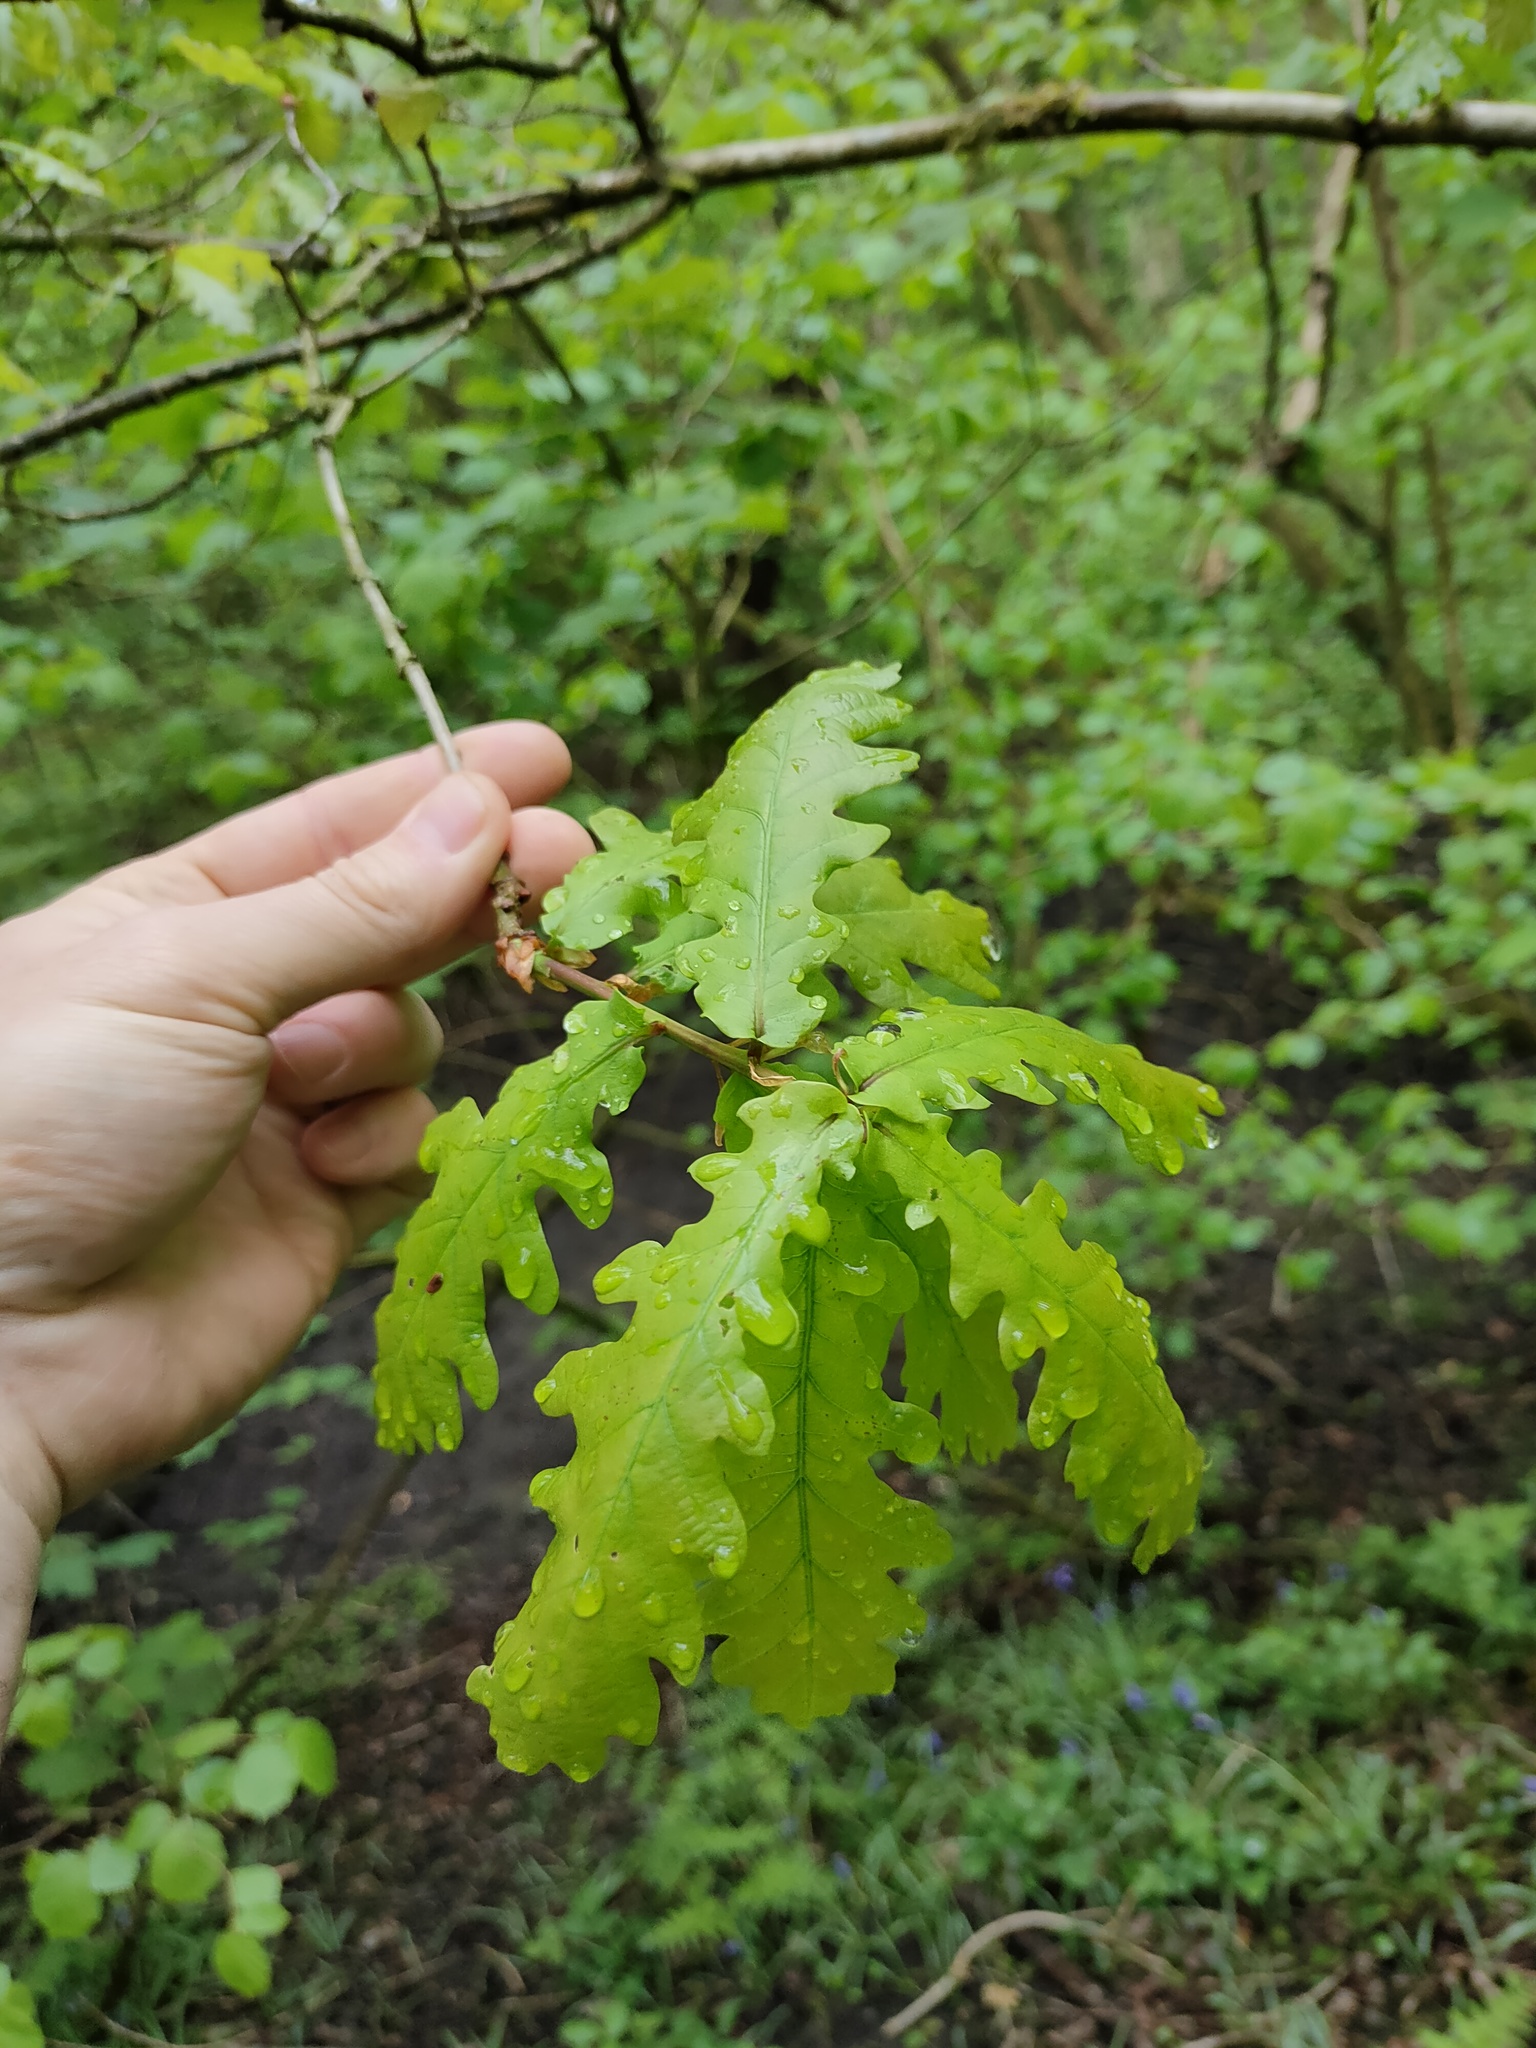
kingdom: Plantae
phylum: Tracheophyta
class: Magnoliopsida
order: Fagales
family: Fagaceae
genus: Quercus
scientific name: Quercus robur
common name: Pedunculate oak
